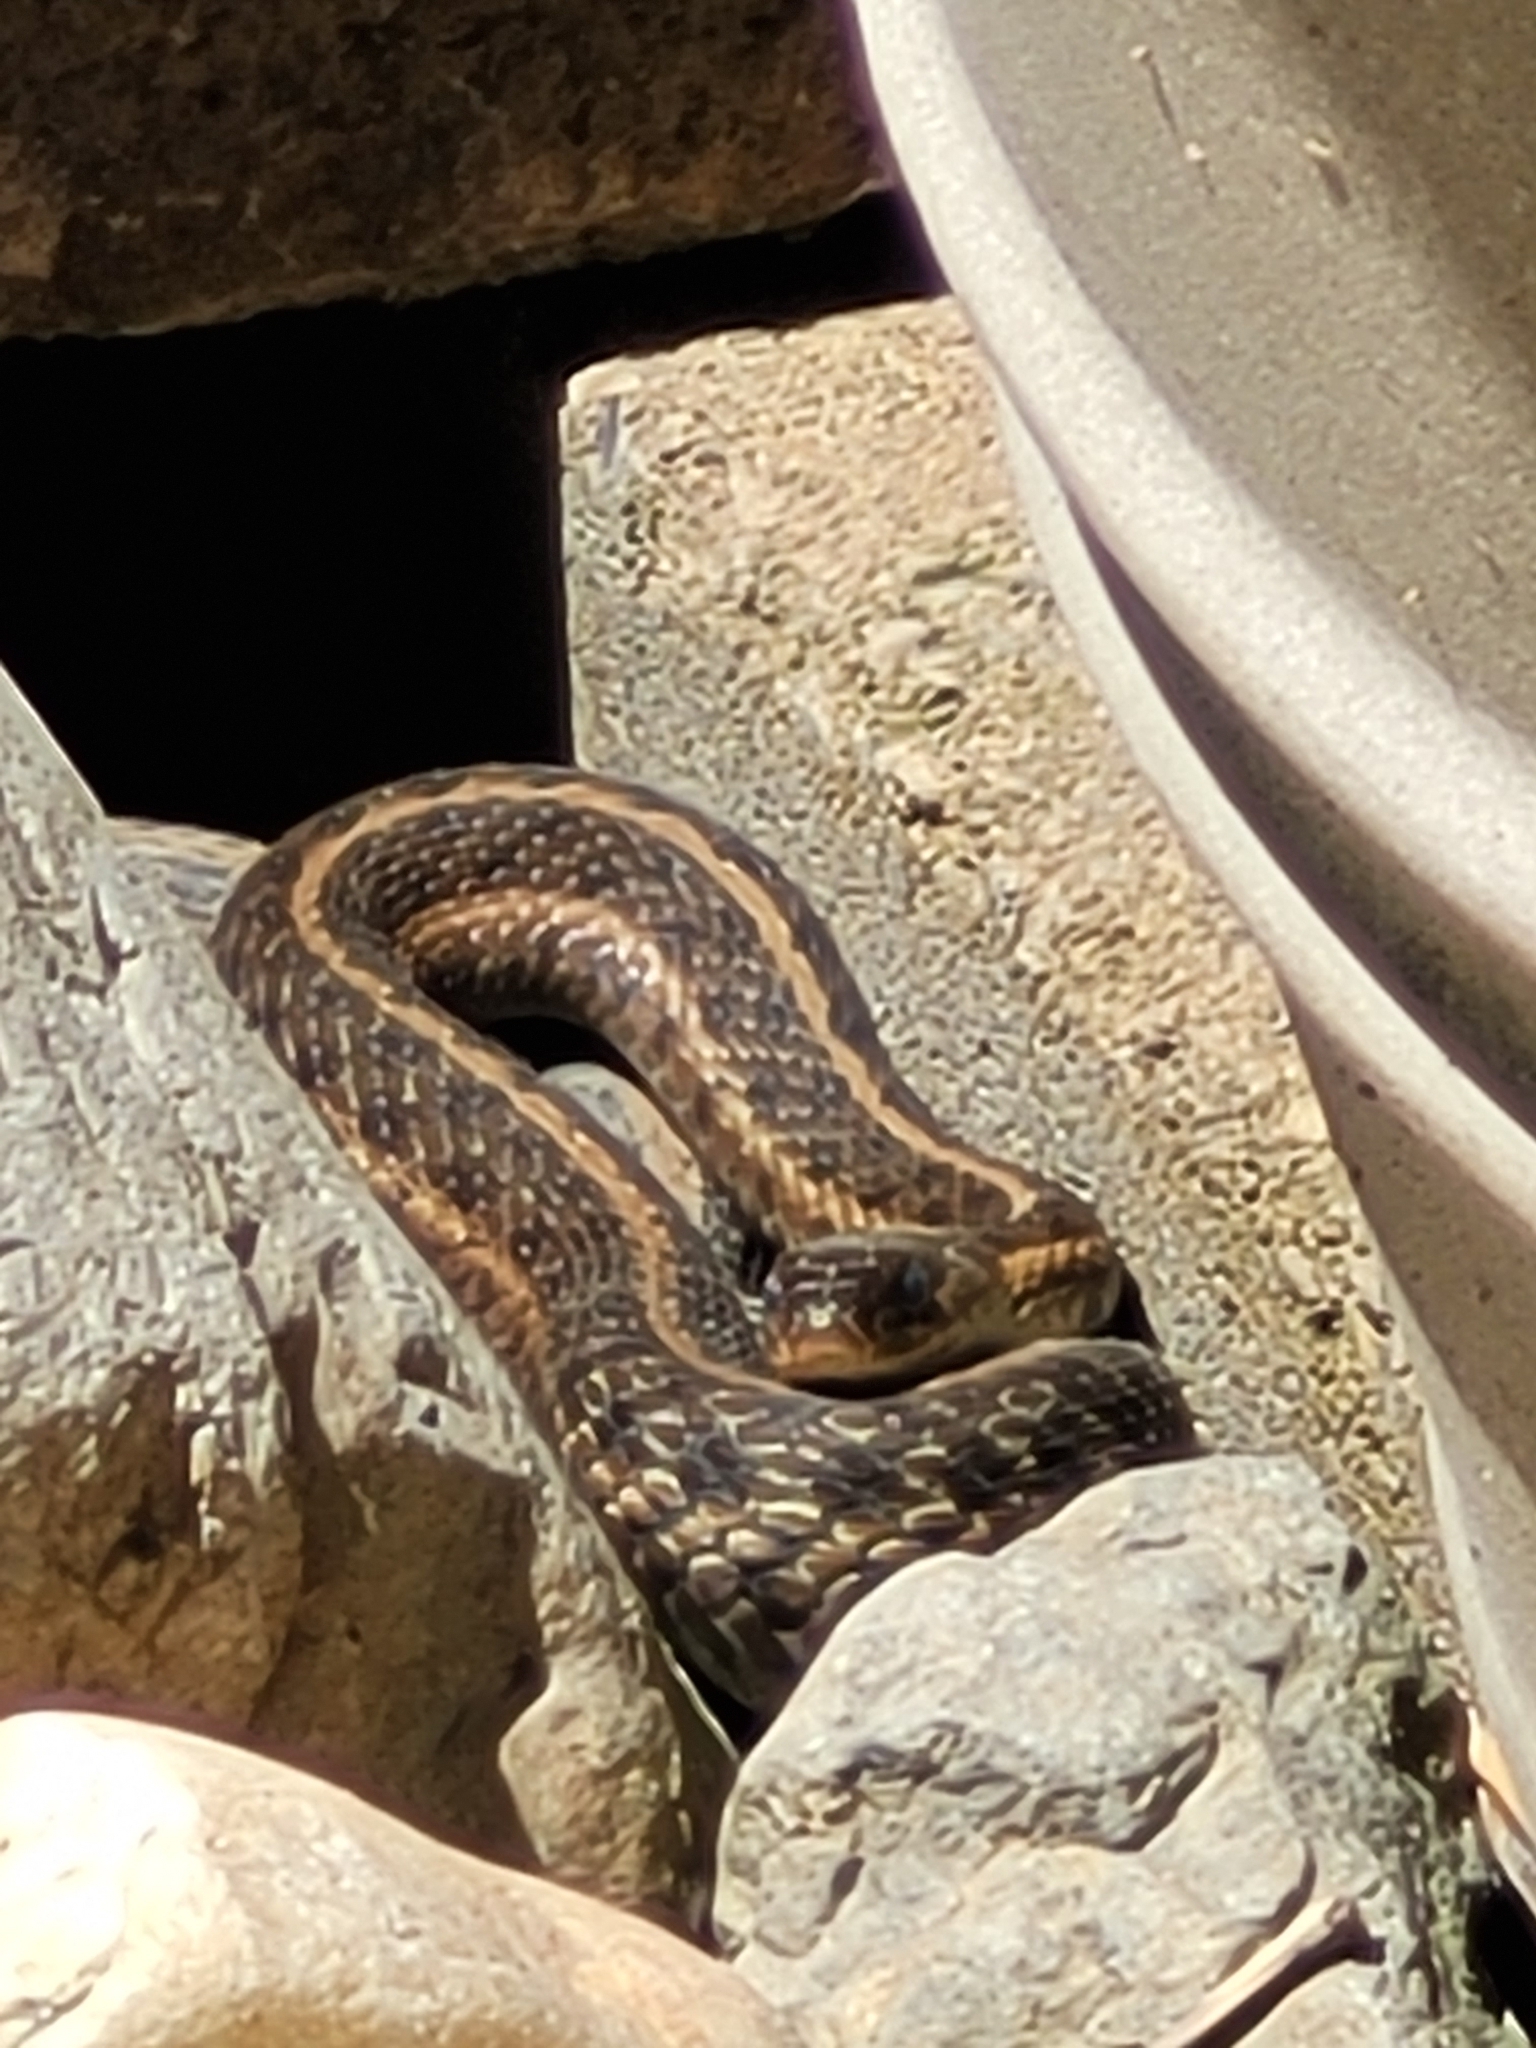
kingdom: Animalia
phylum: Chordata
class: Squamata
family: Colubridae
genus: Thamnophis
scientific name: Thamnophis sirtalis
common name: Common garter snake
